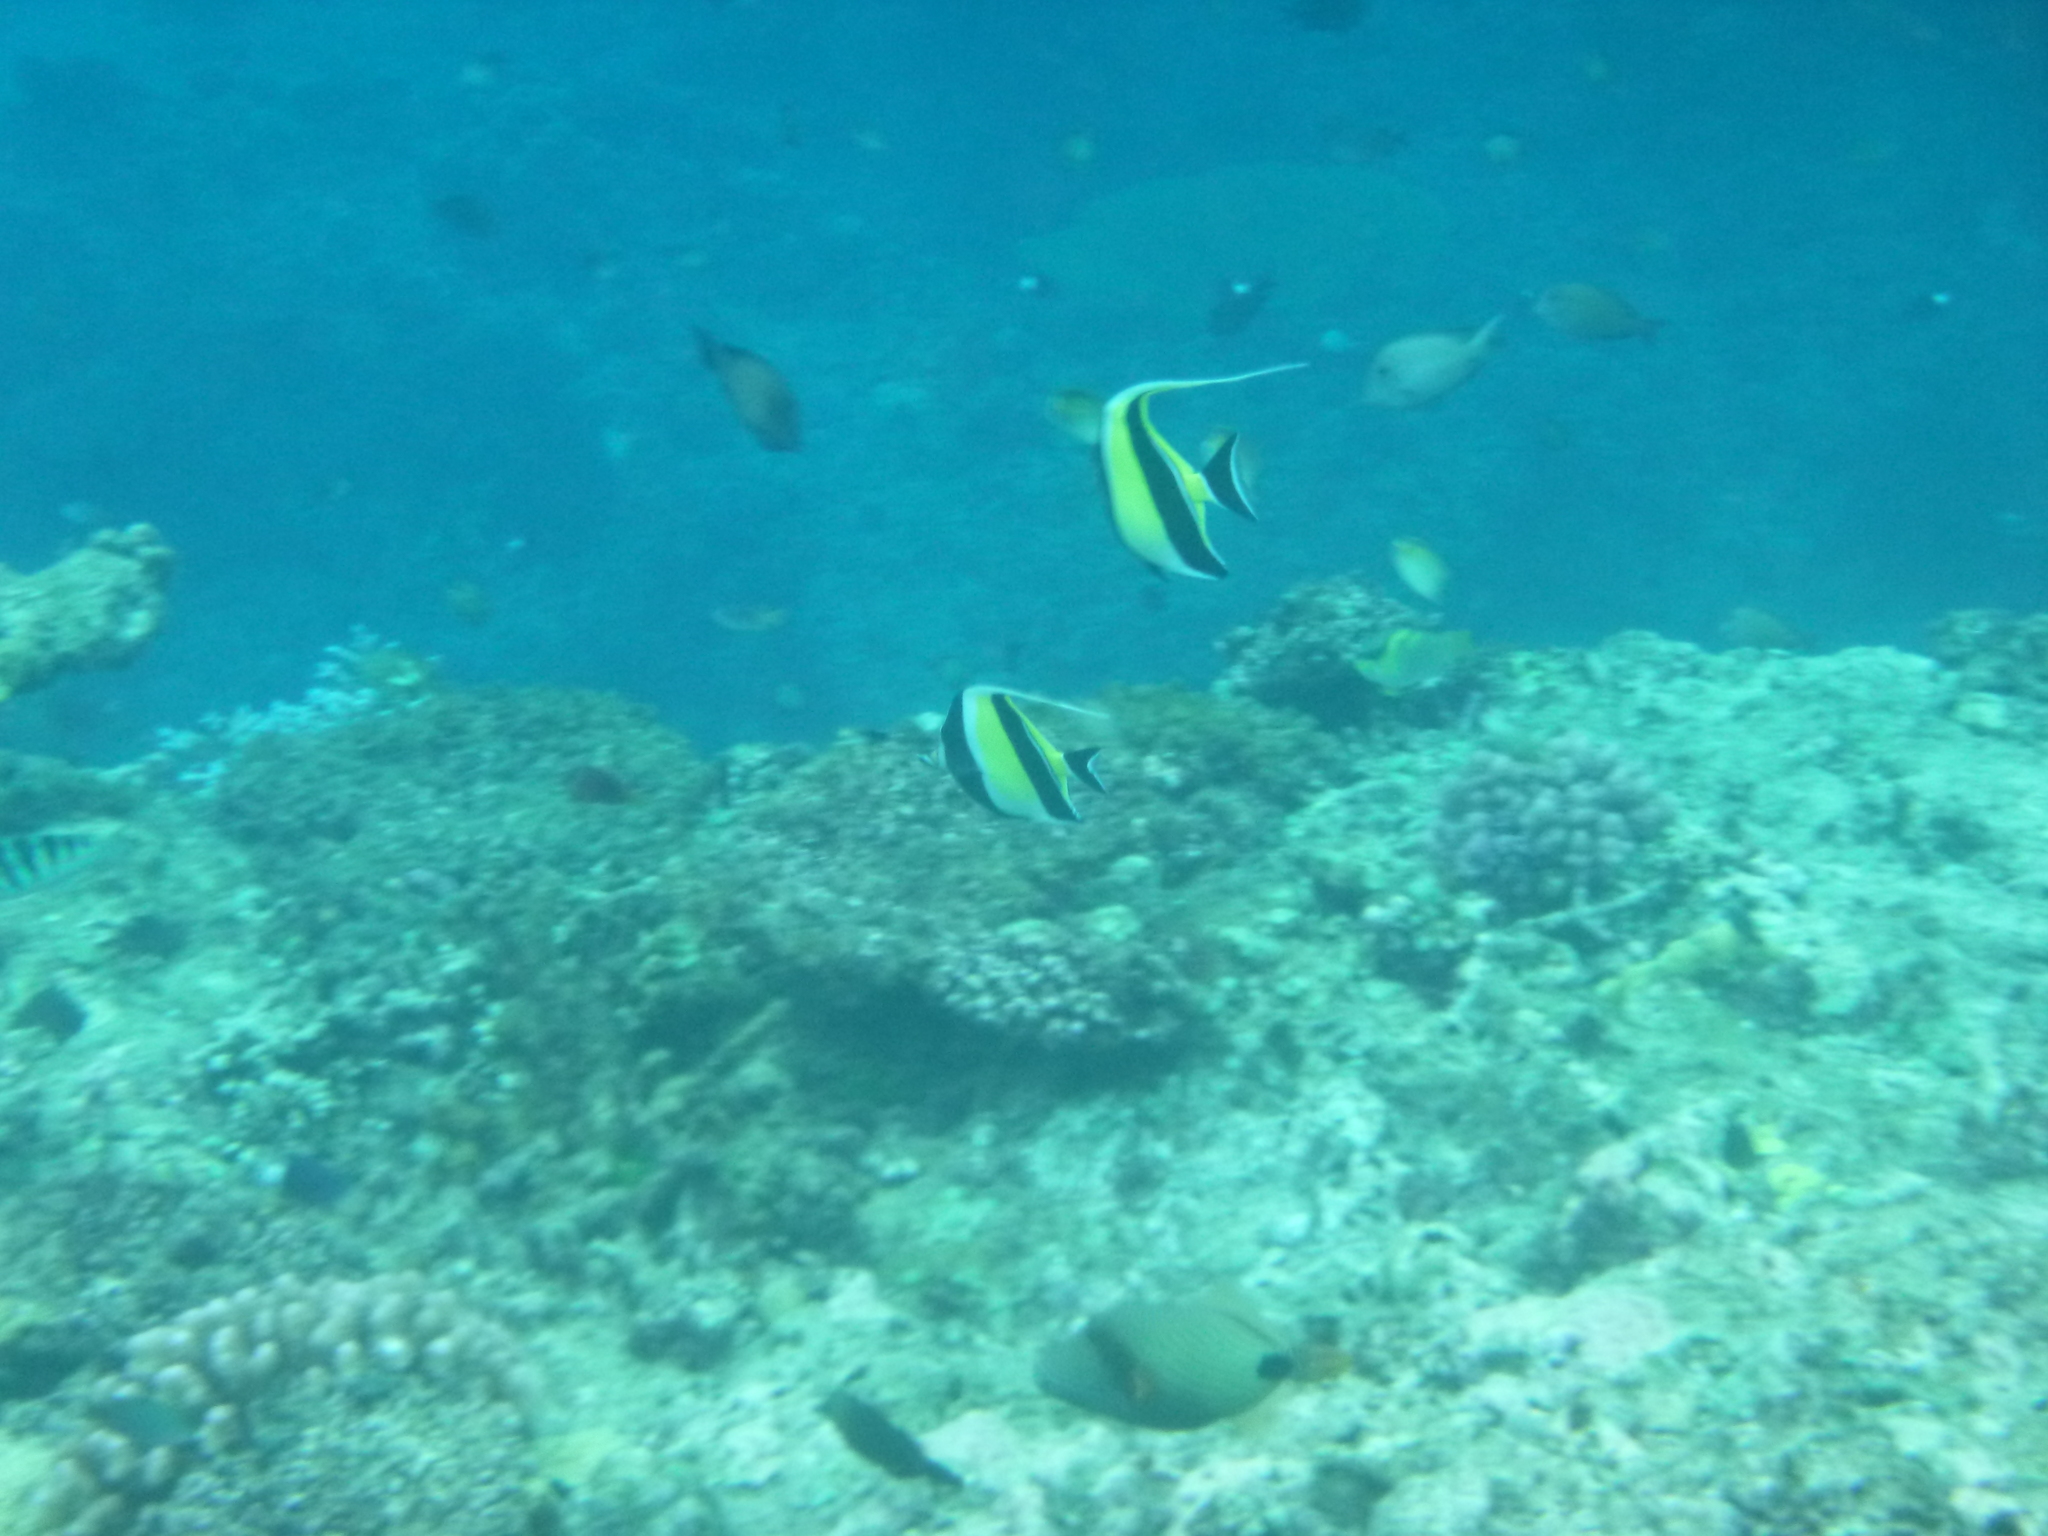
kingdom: Animalia
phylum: Chordata
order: Perciformes
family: Zanclidae
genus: Zanclus
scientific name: Zanclus cornutus
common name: Moorish idol
